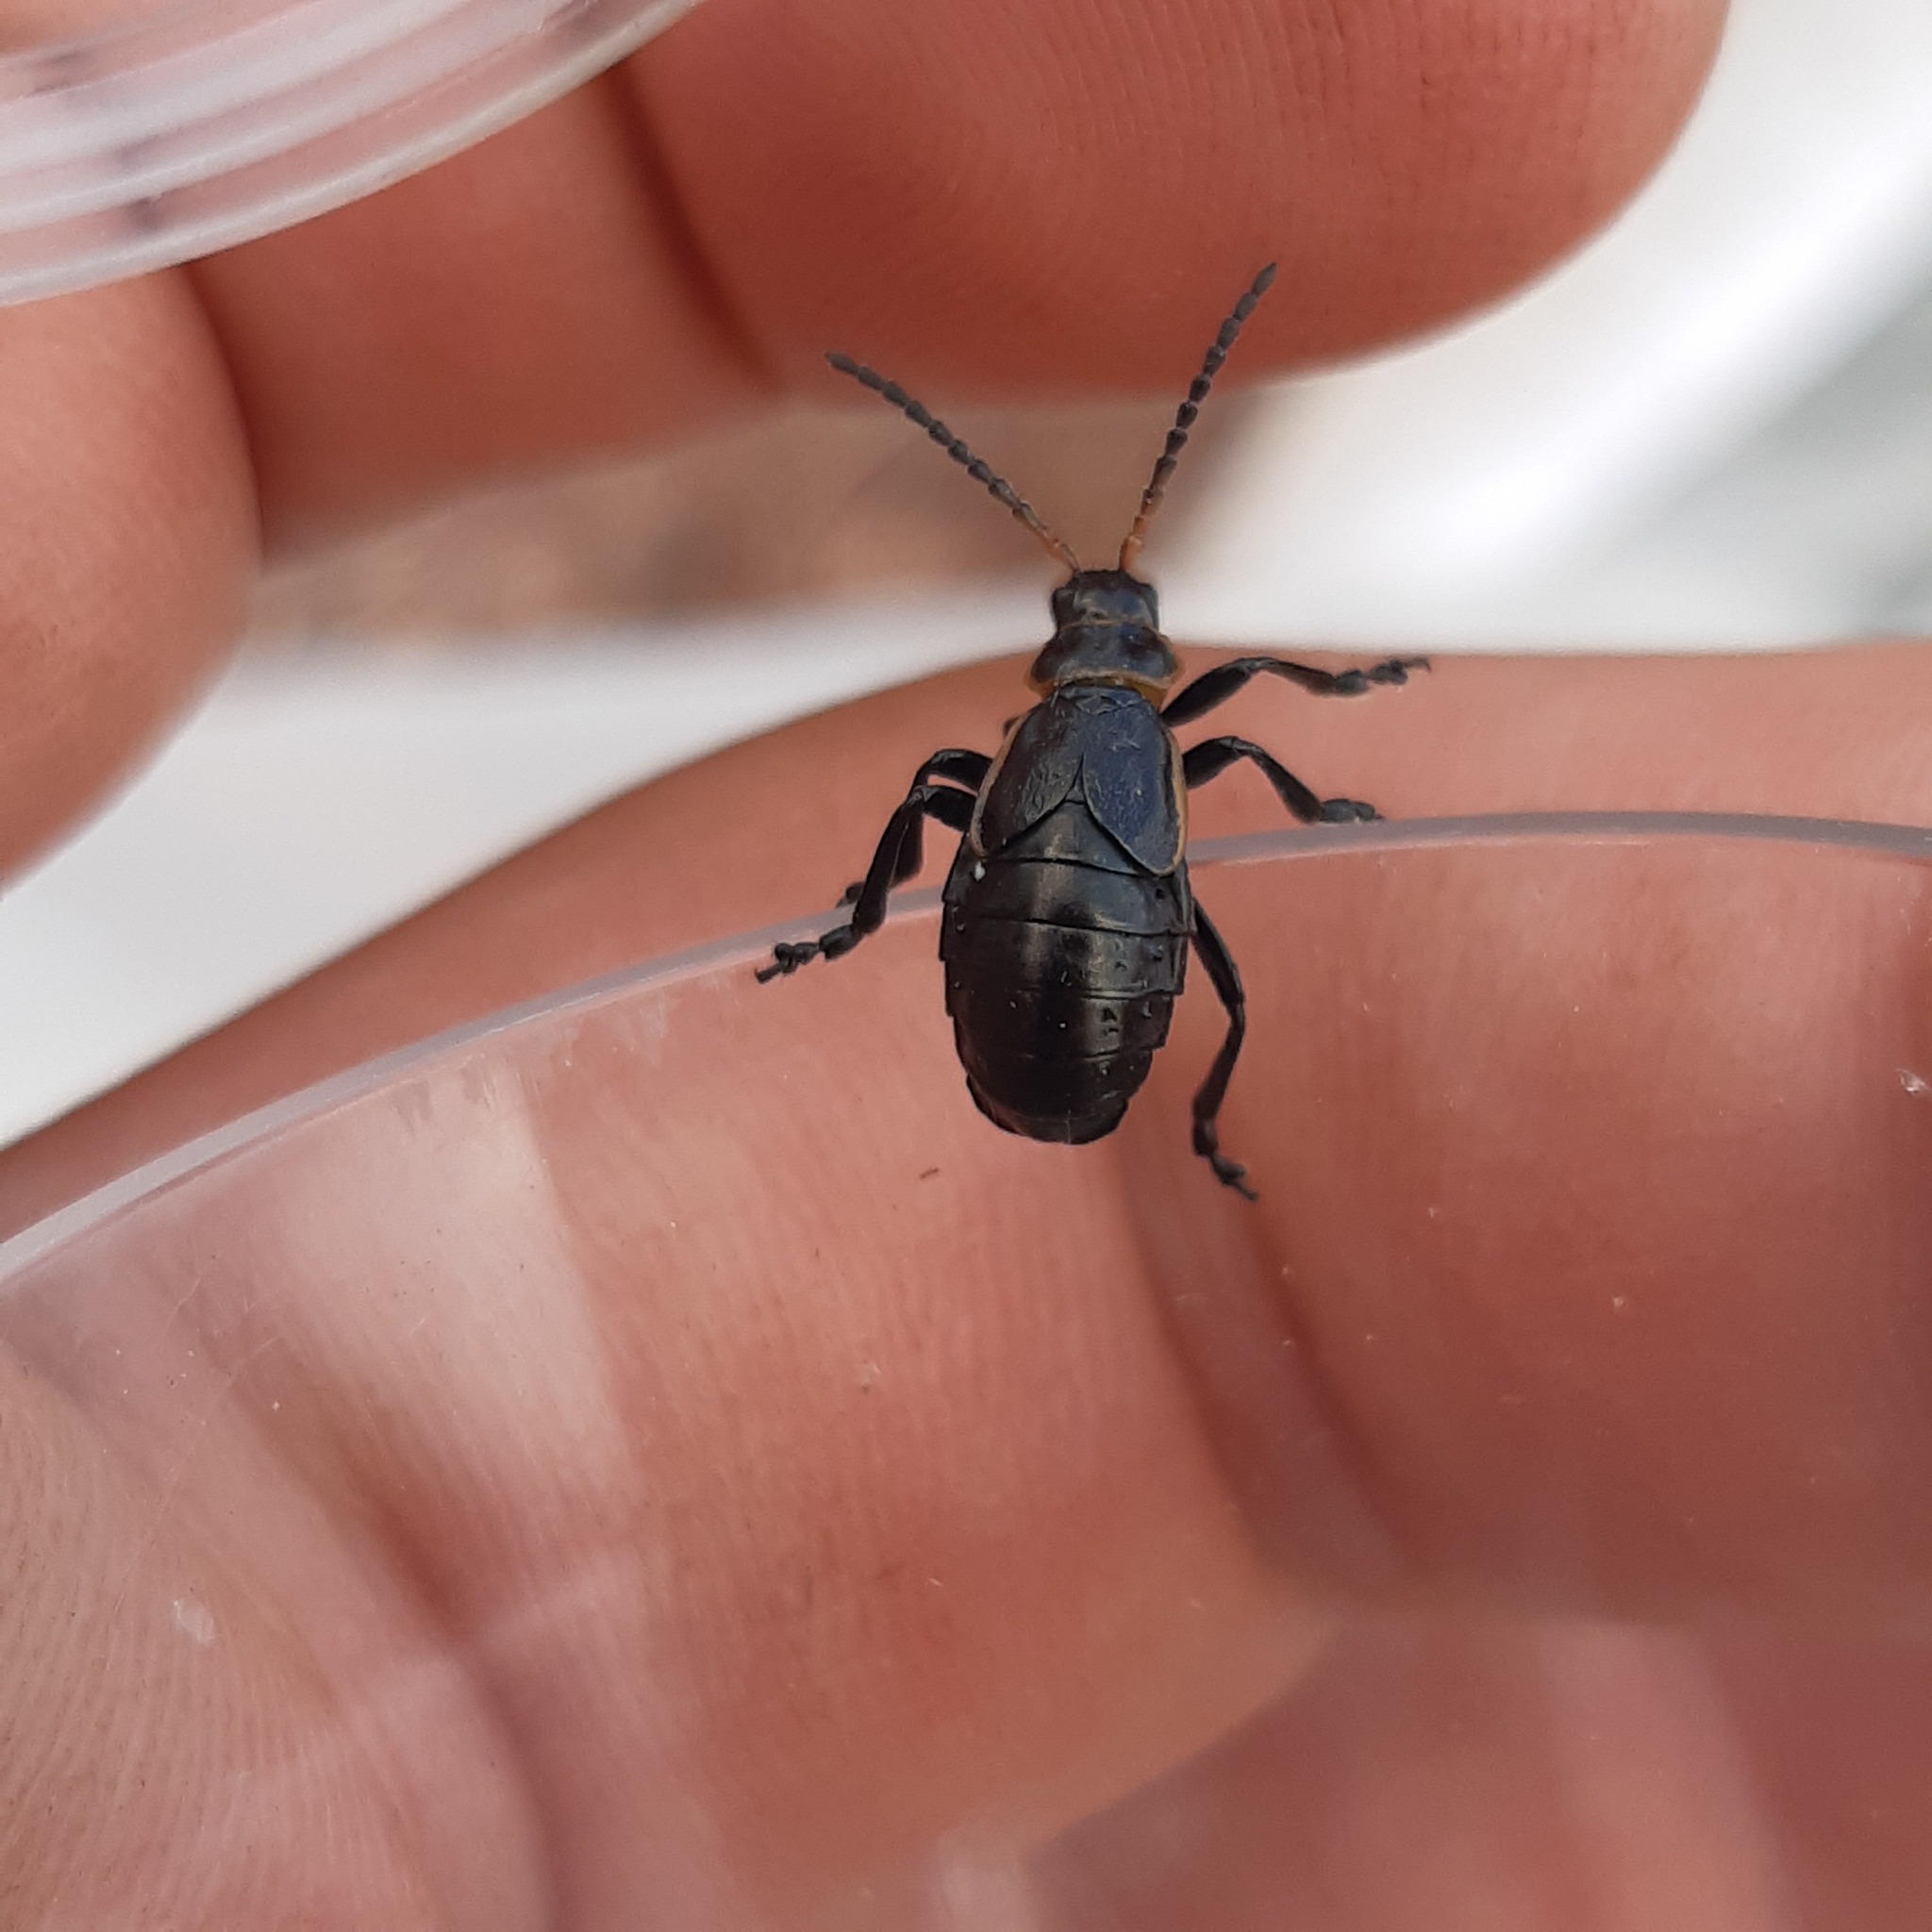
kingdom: Animalia
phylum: Arthropoda
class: Insecta
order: Coleoptera
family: Chrysomelidae
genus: Arima
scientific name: Arima marginata
